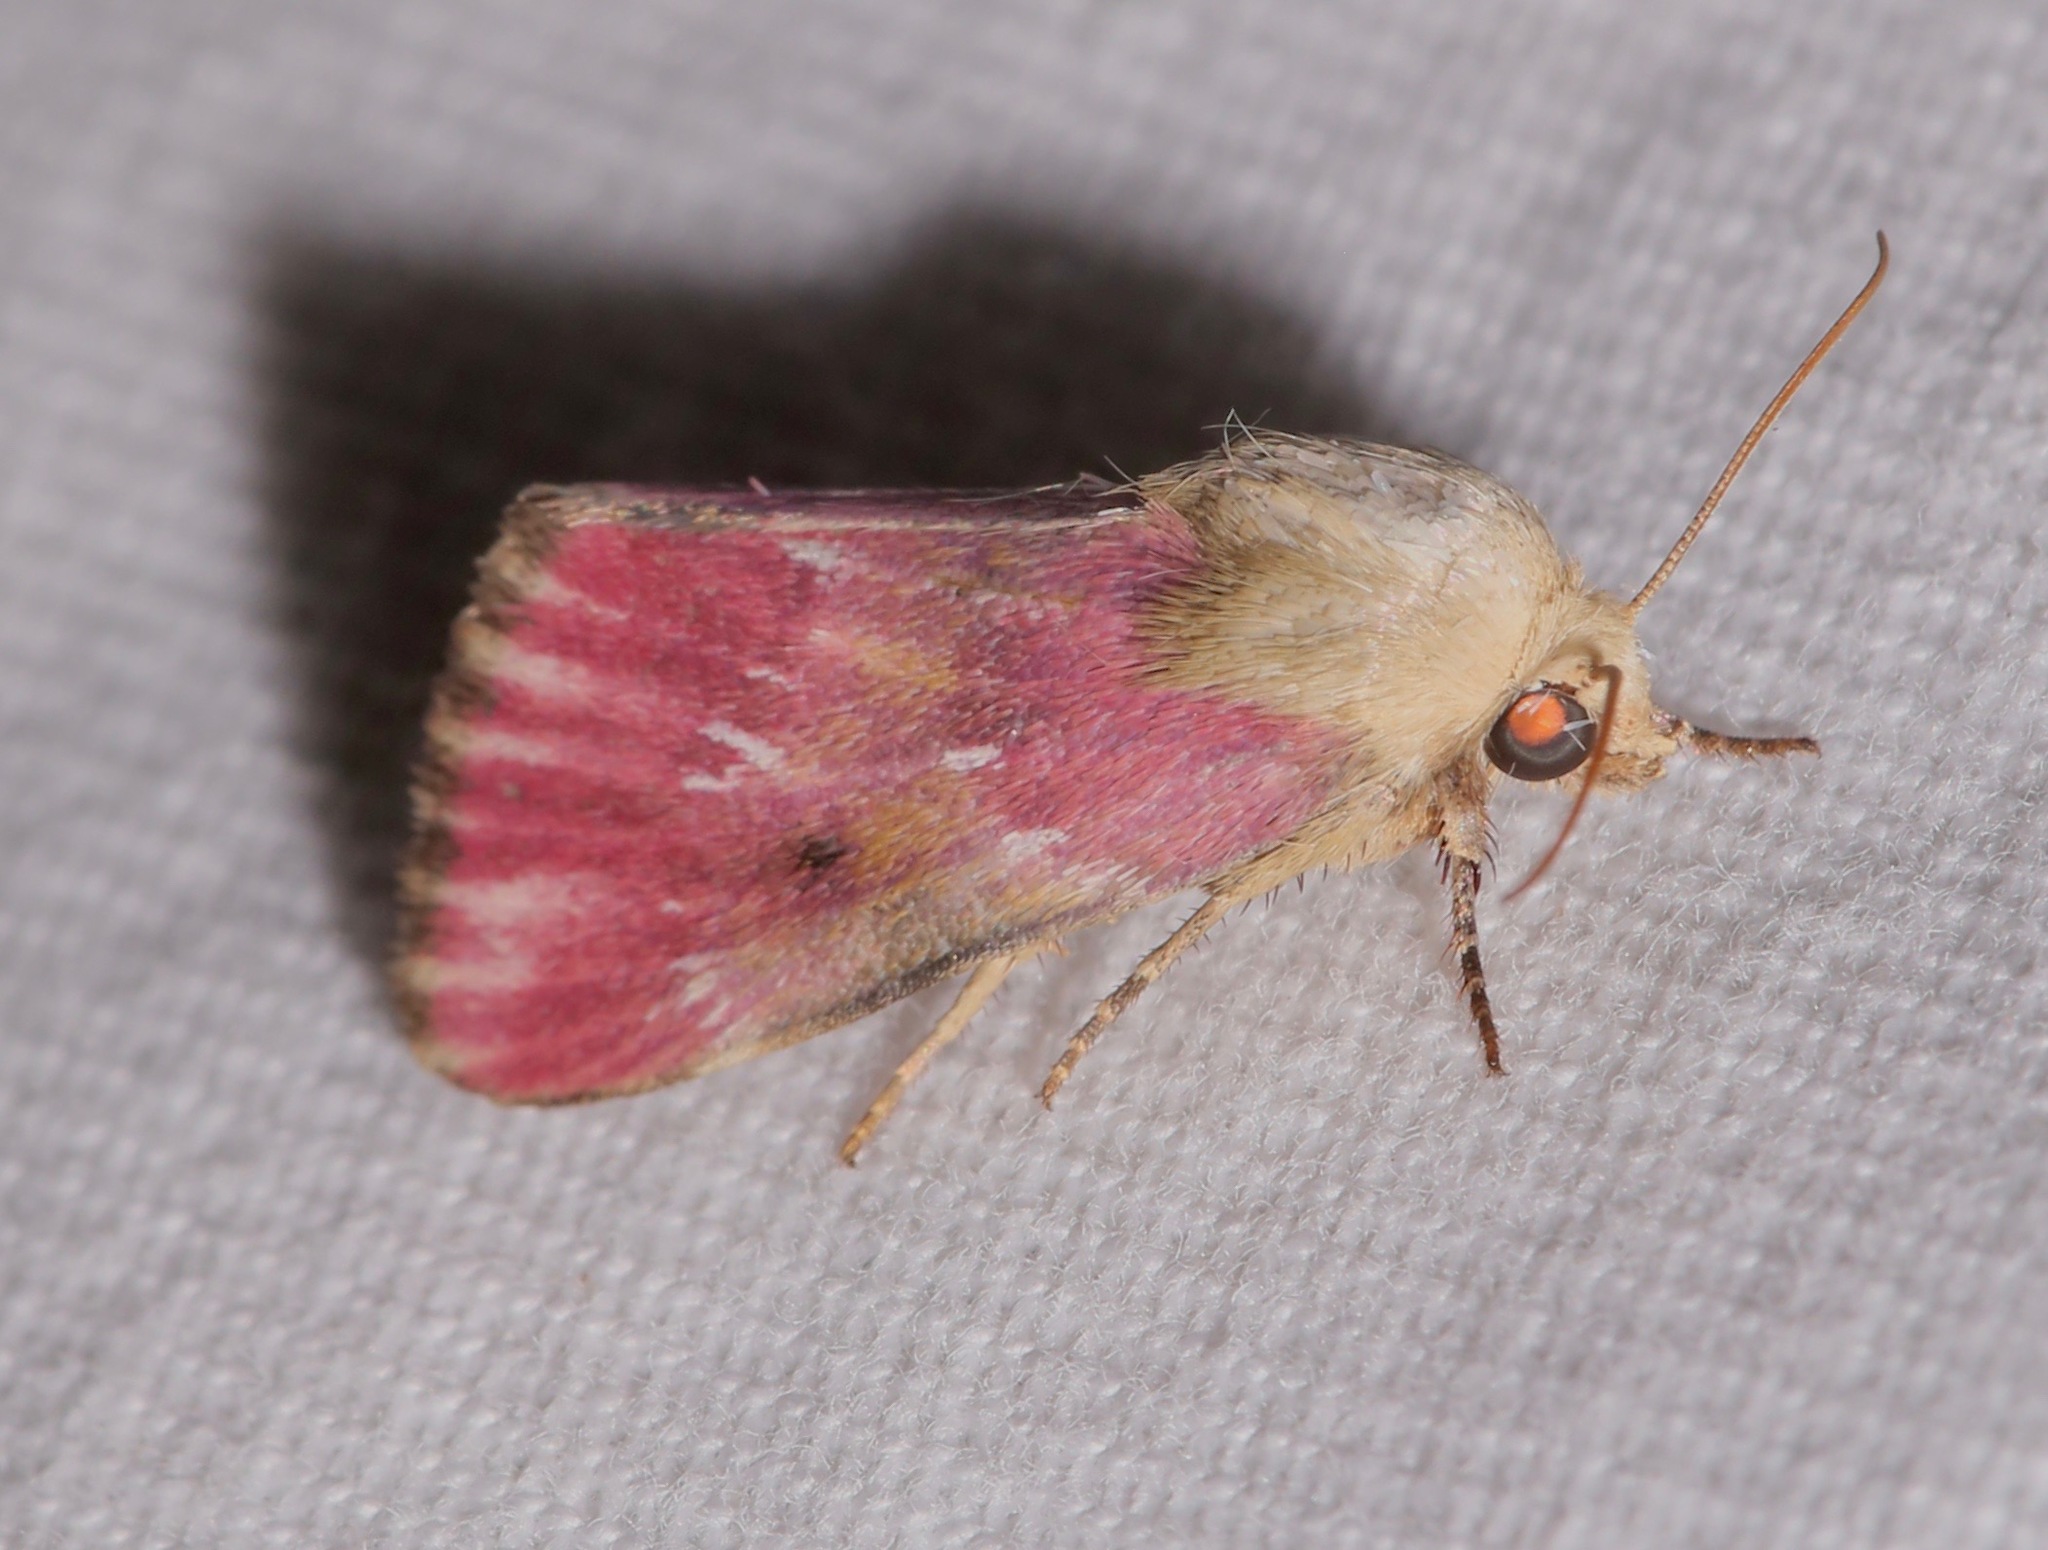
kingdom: Animalia
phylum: Arthropoda
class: Insecta
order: Lepidoptera
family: Noctuidae
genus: Schinia
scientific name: Schinia sanguinea
